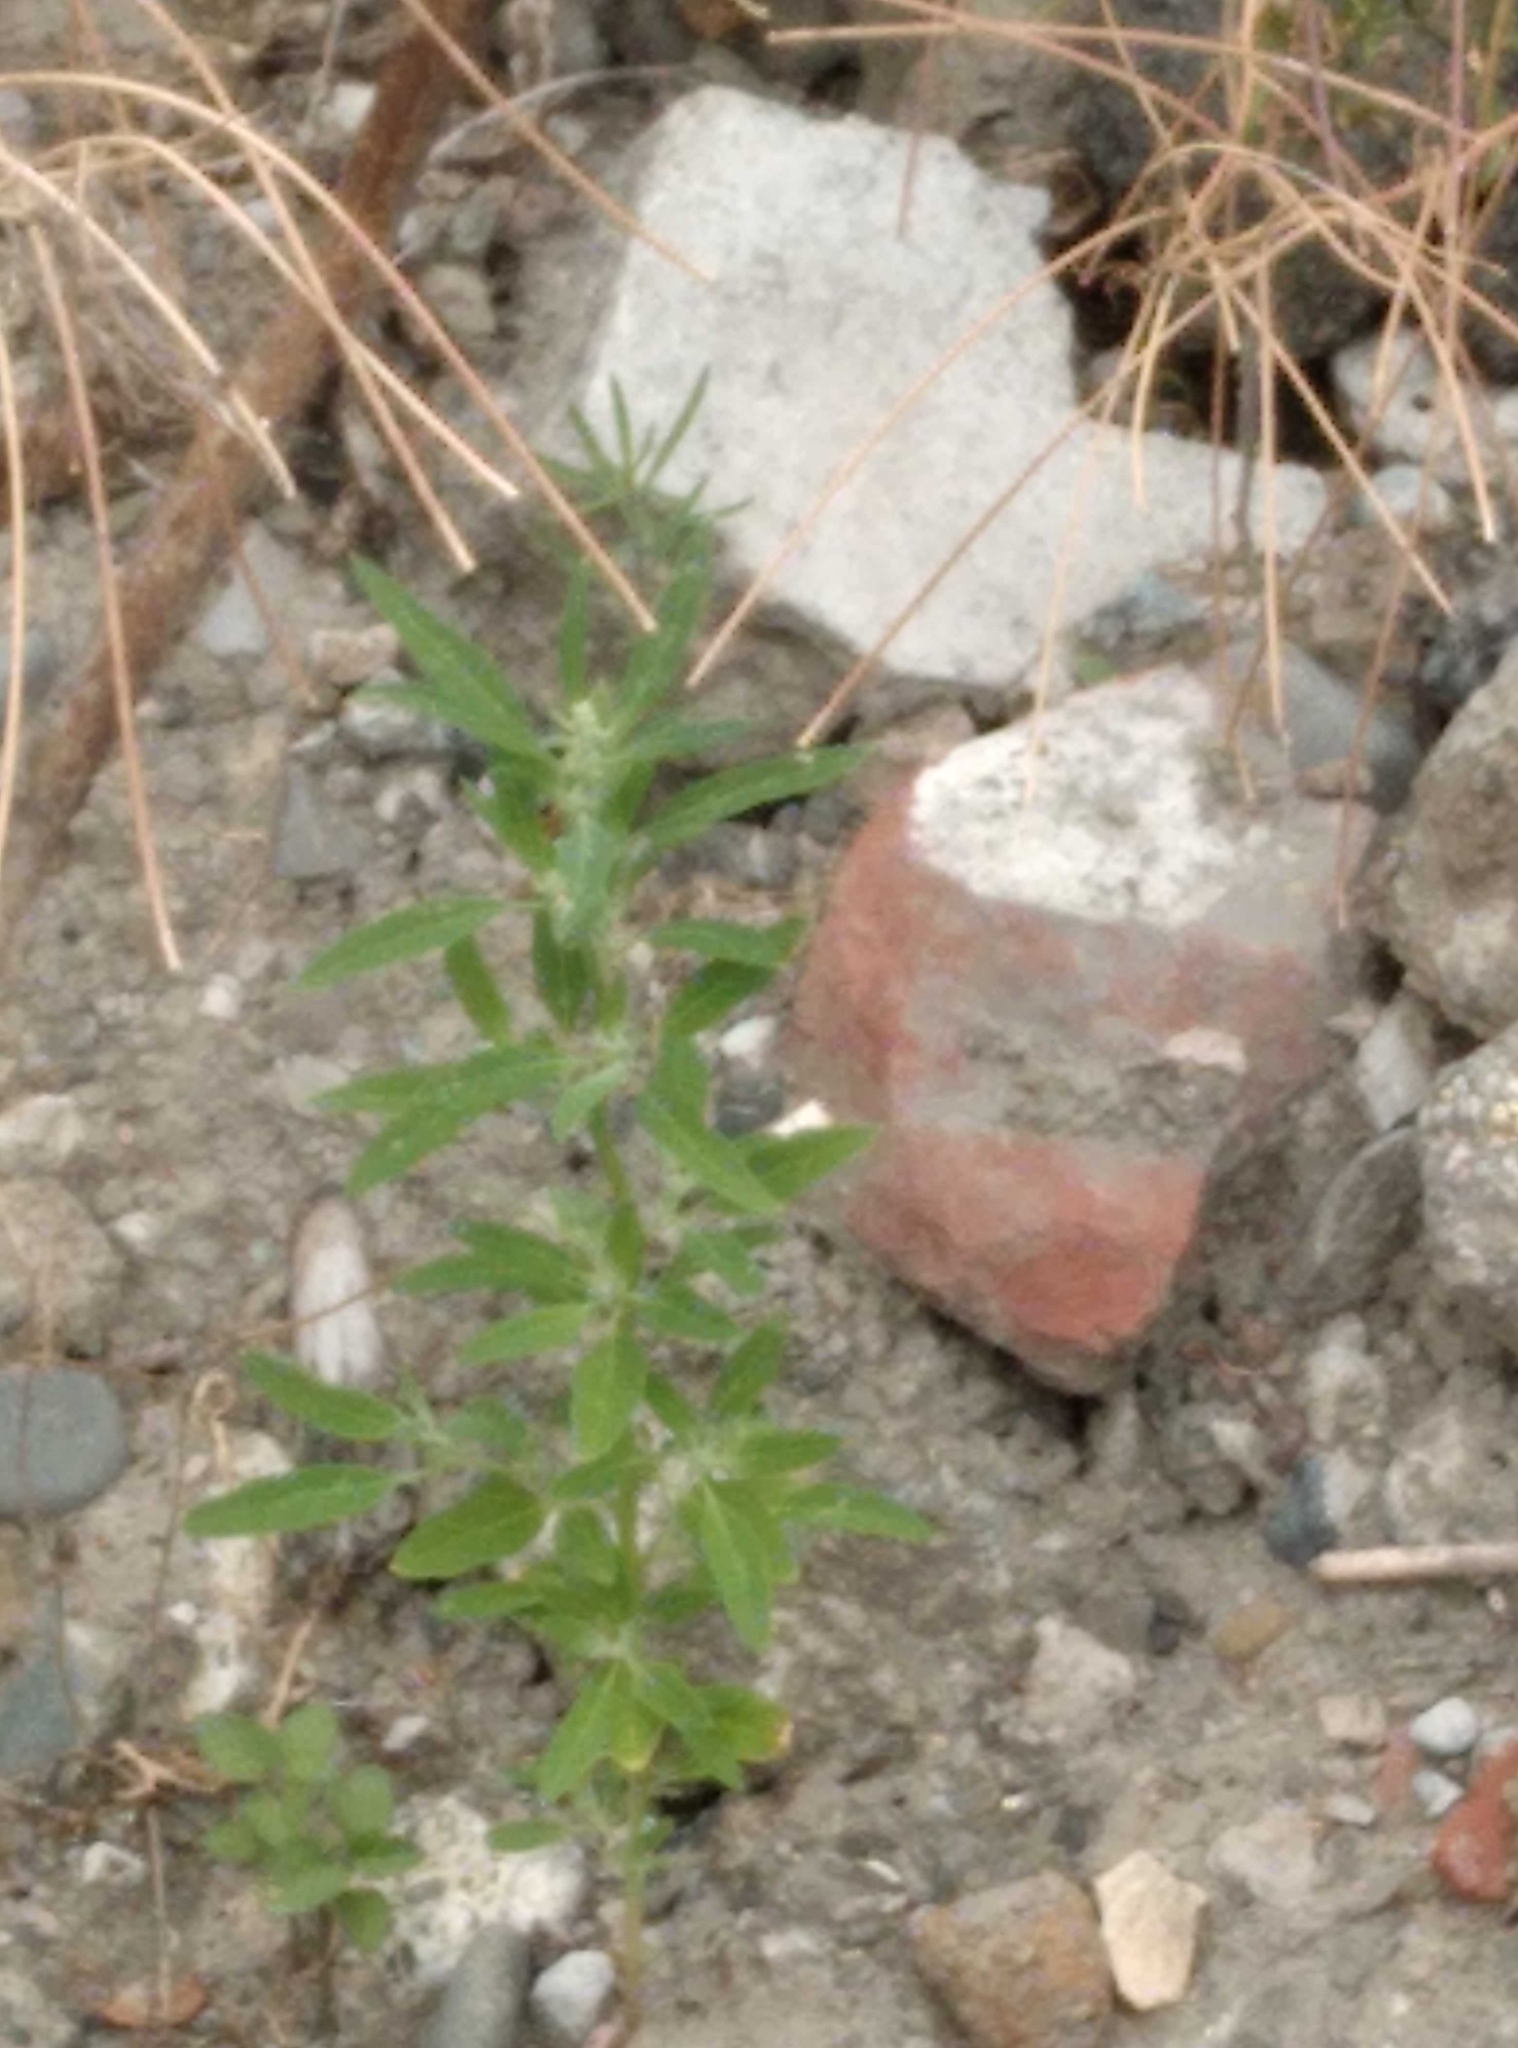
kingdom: Plantae
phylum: Tracheophyta
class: Magnoliopsida
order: Caryophyllales
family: Amaranthaceae
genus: Chenopodium
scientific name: Chenopodium album
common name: Fat-hen
